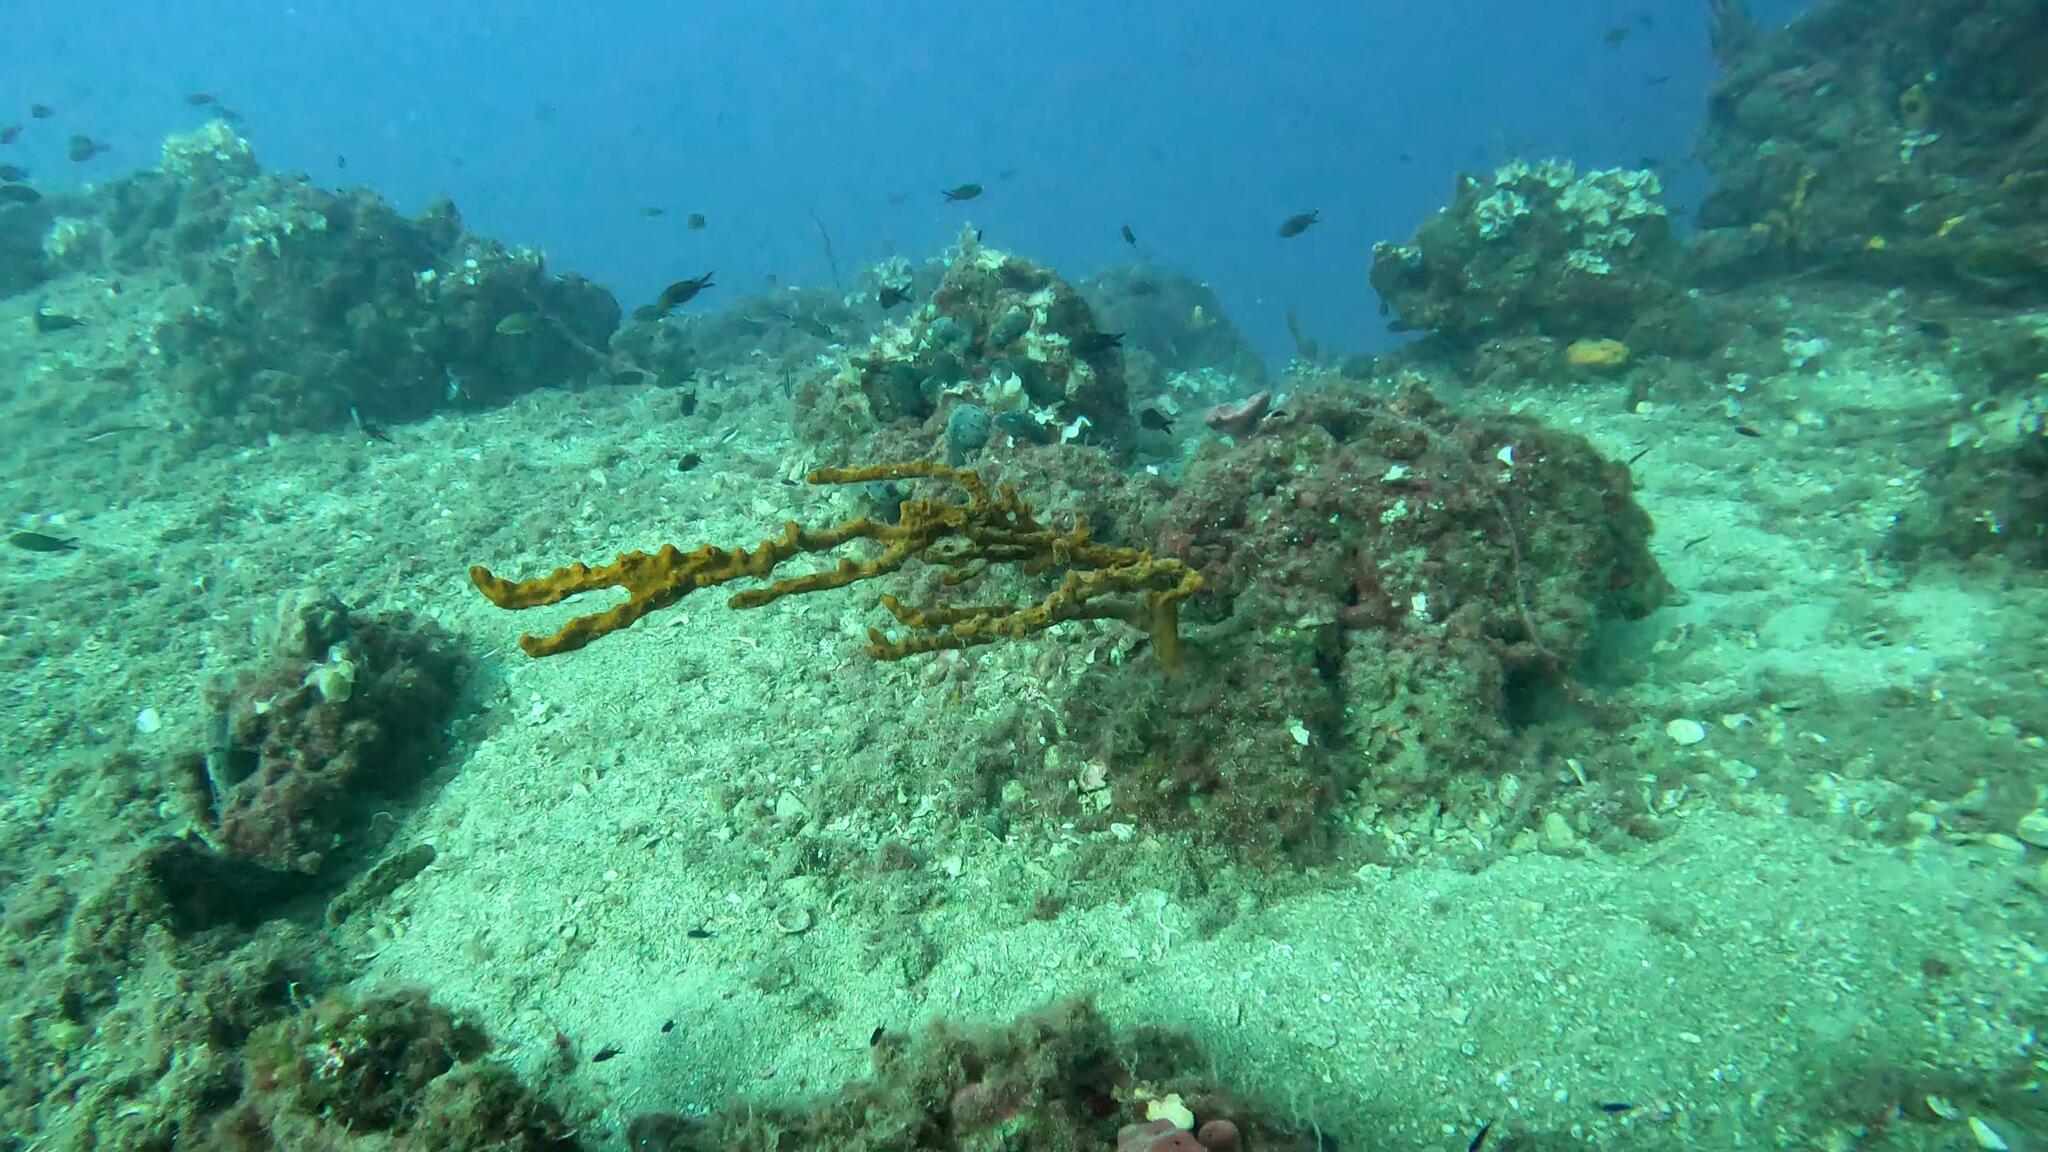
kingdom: Animalia
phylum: Porifera
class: Demospongiae
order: Axinellida
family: Axinellidae
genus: Axinella
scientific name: Axinella cannabina
